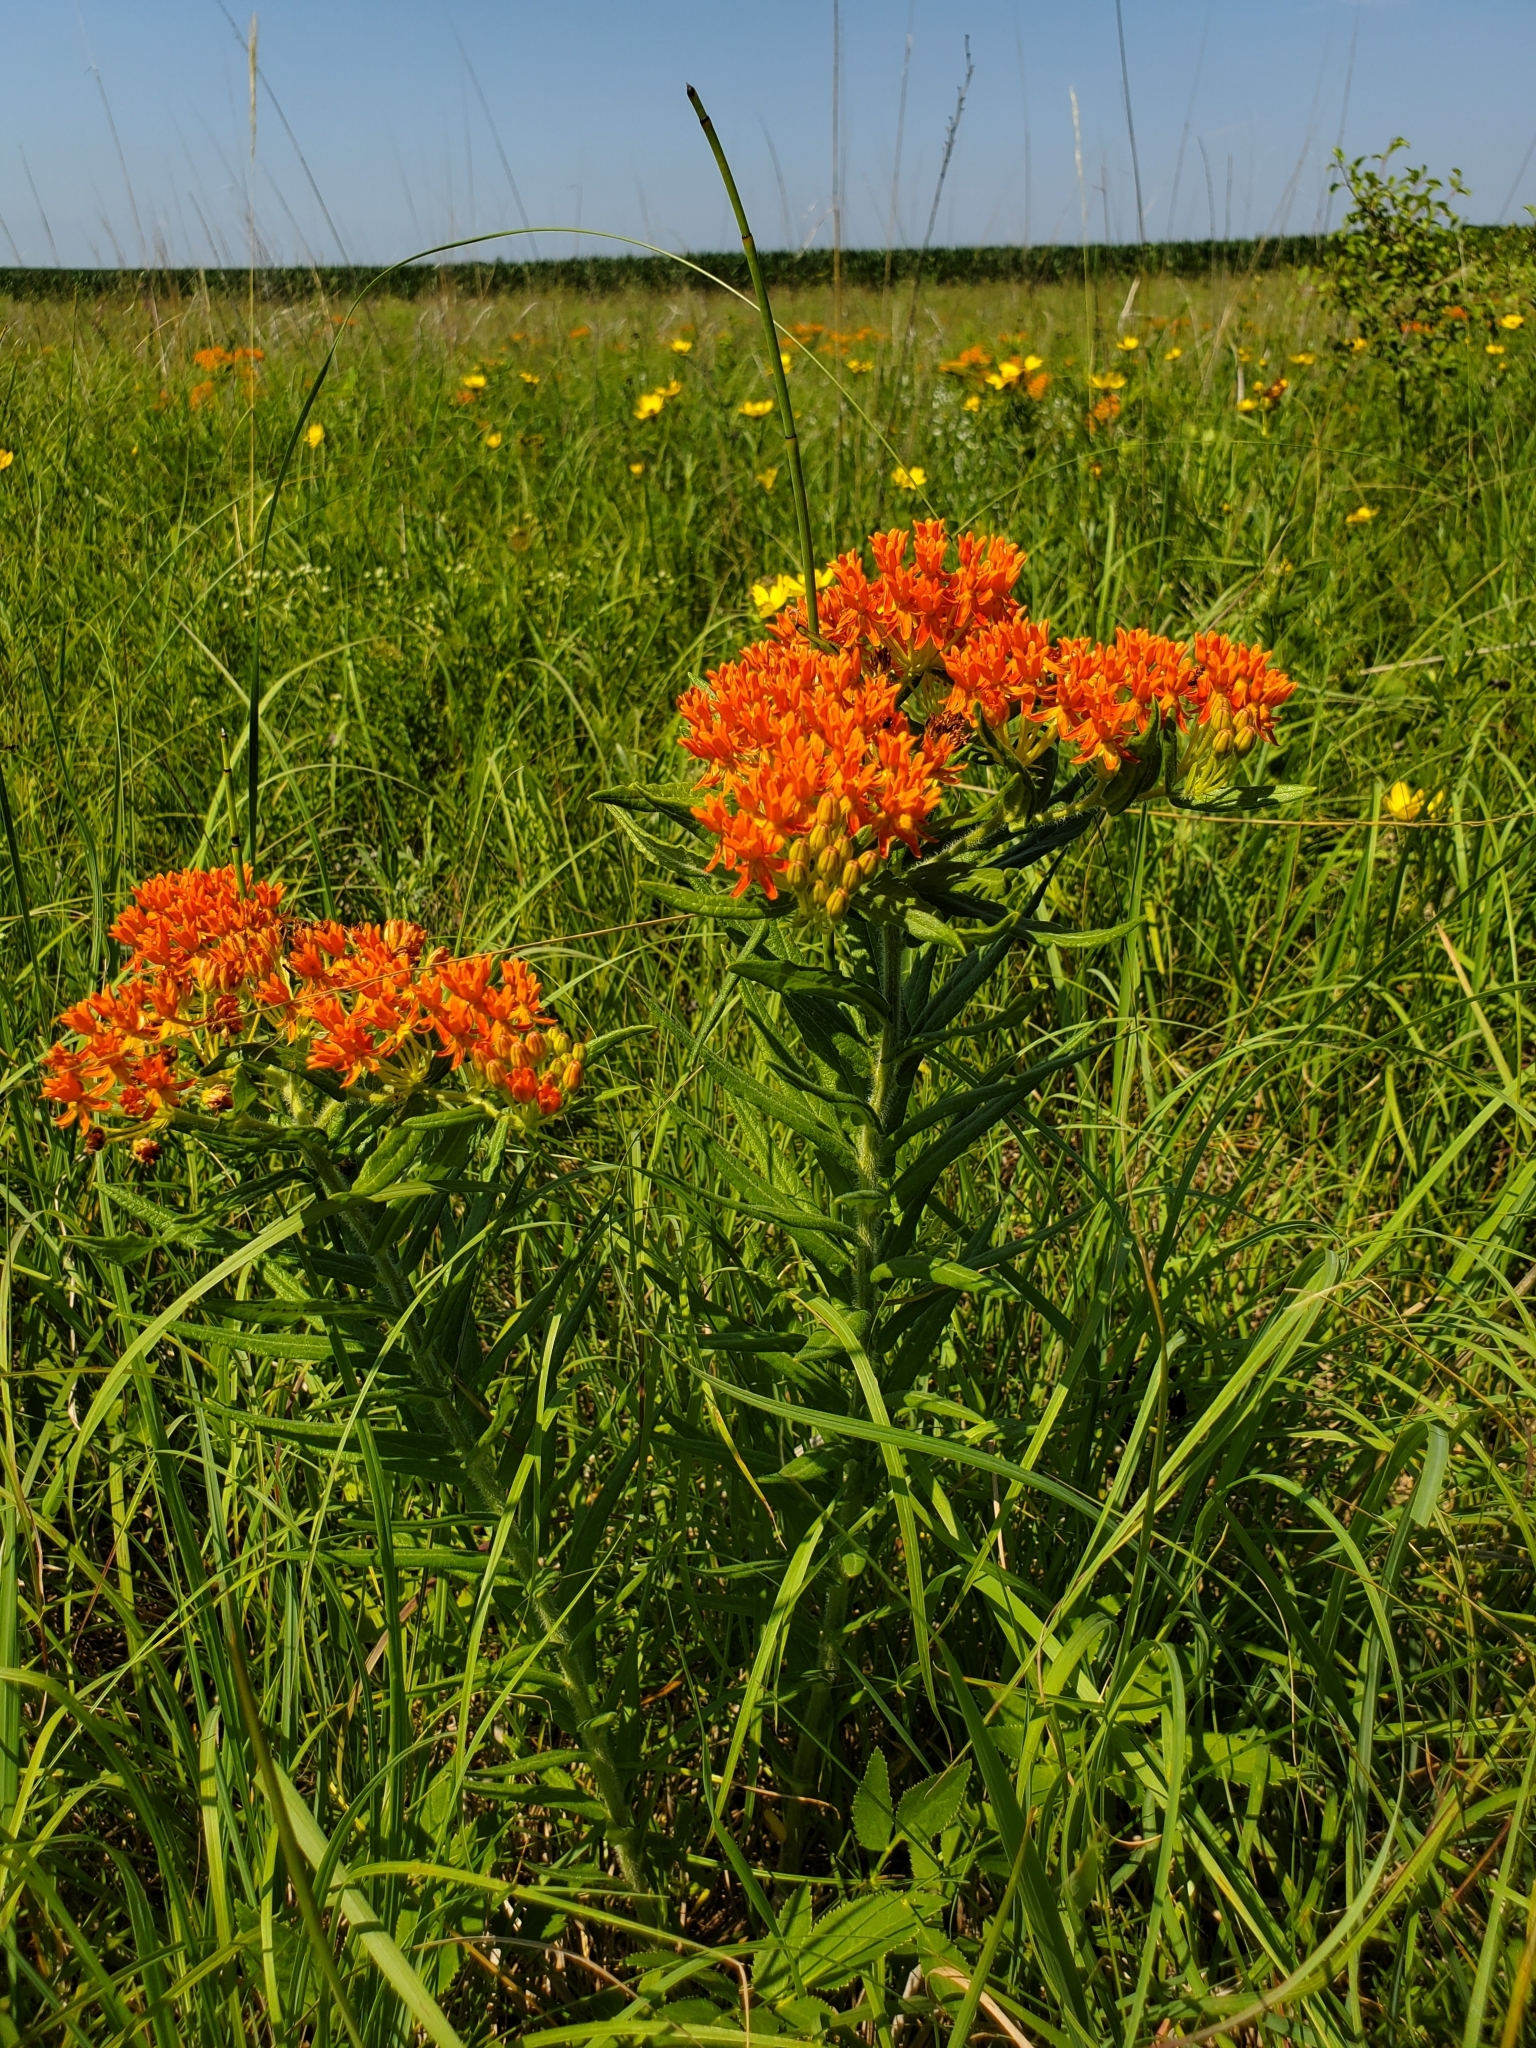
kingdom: Plantae
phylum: Tracheophyta
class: Magnoliopsida
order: Gentianales
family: Apocynaceae
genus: Asclepias
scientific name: Asclepias tuberosa
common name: Butterfly milkweed
